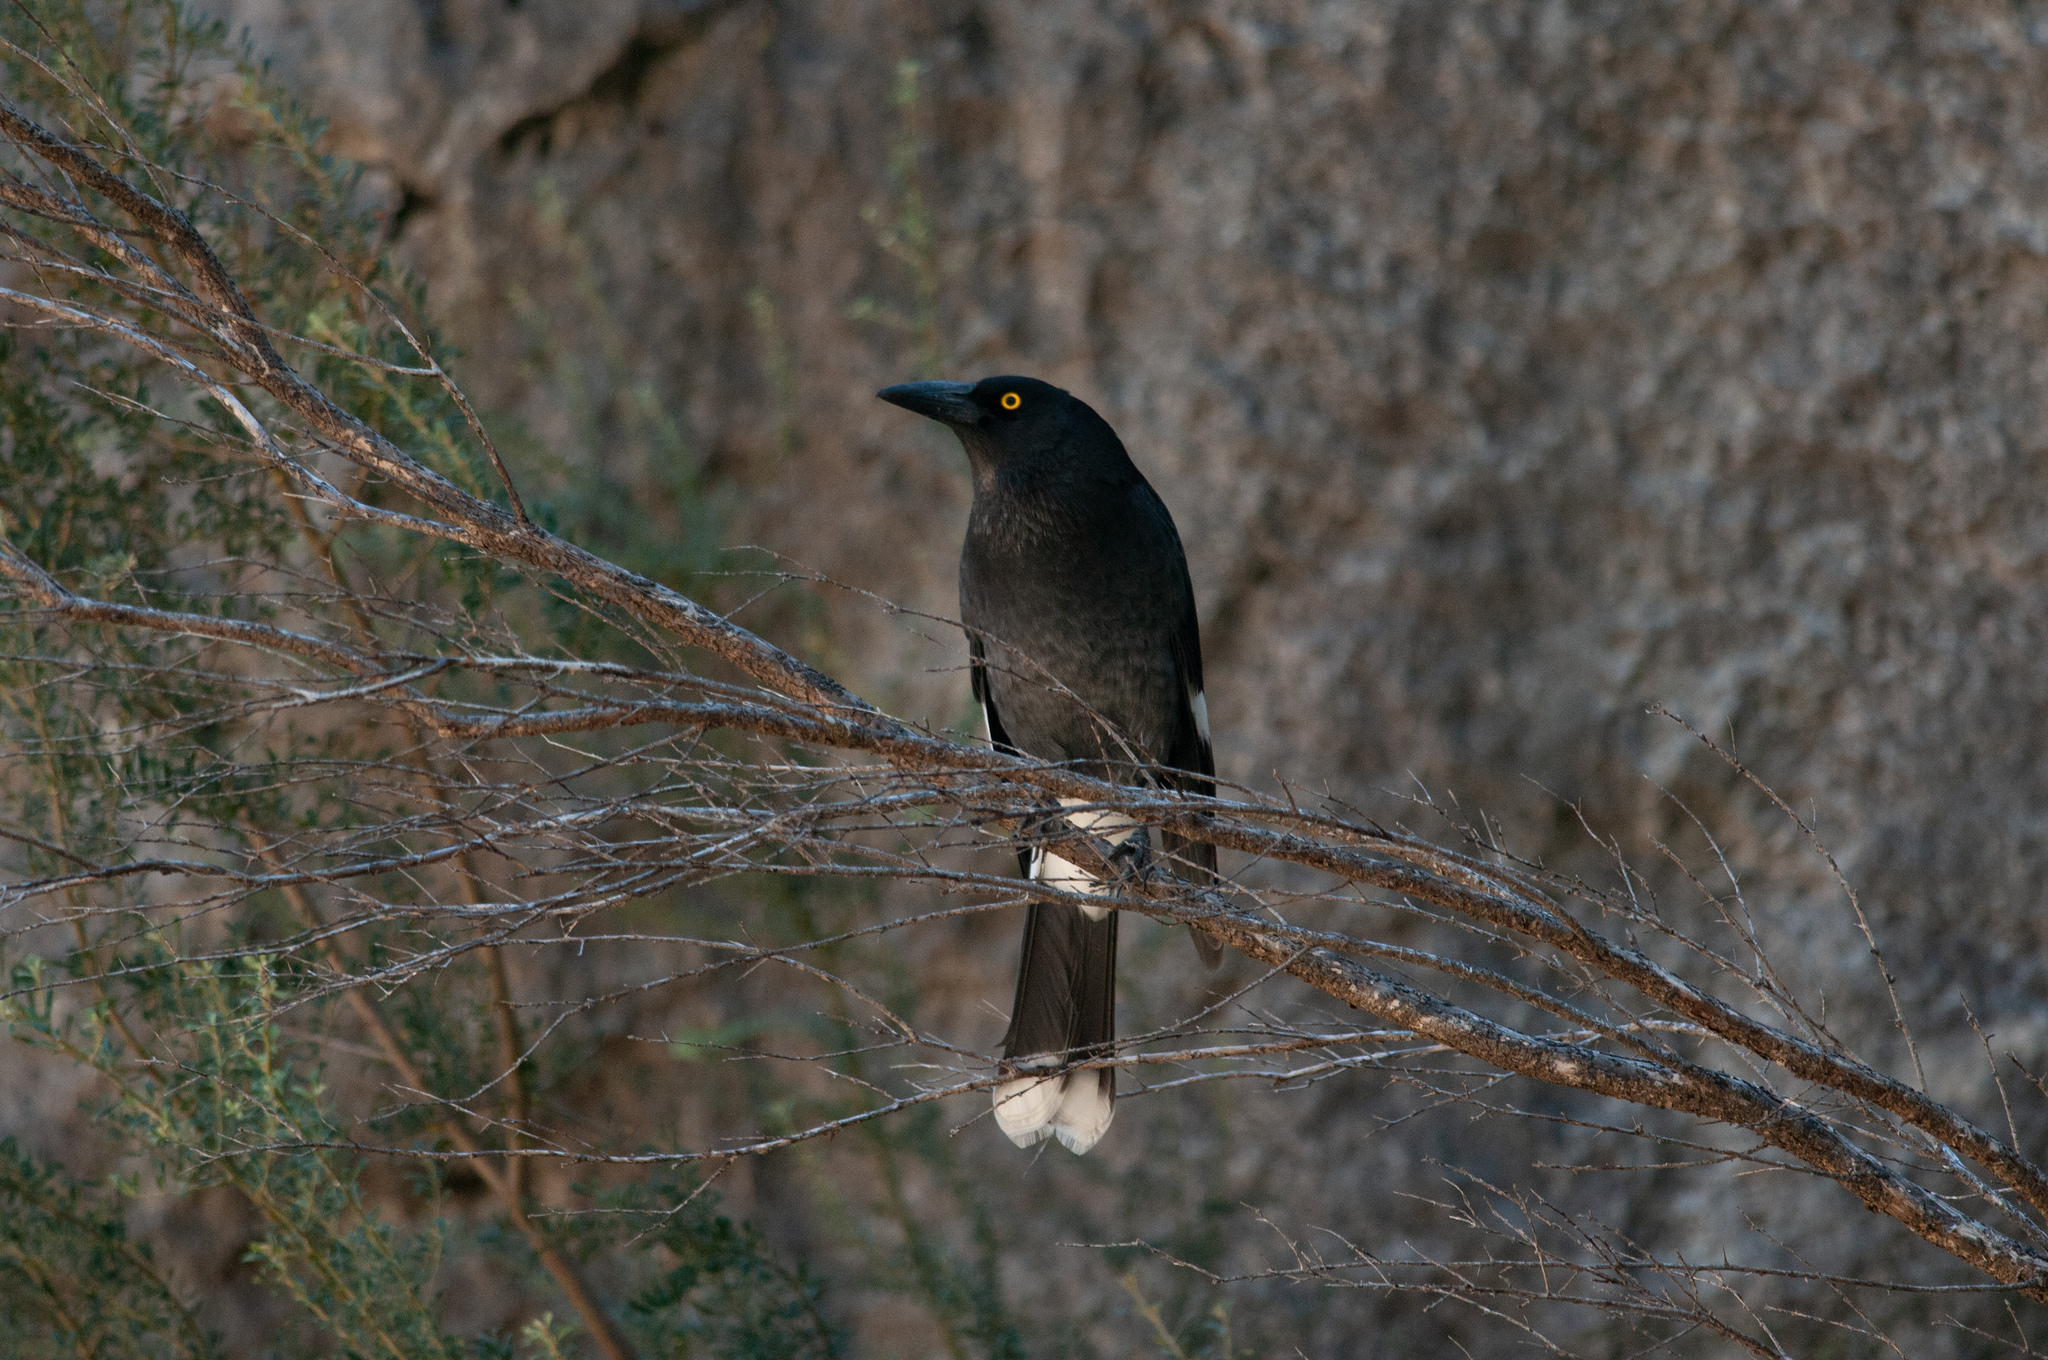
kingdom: Animalia
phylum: Chordata
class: Aves
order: Passeriformes
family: Cracticidae
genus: Strepera
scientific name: Strepera graculina
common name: Pied currawong
